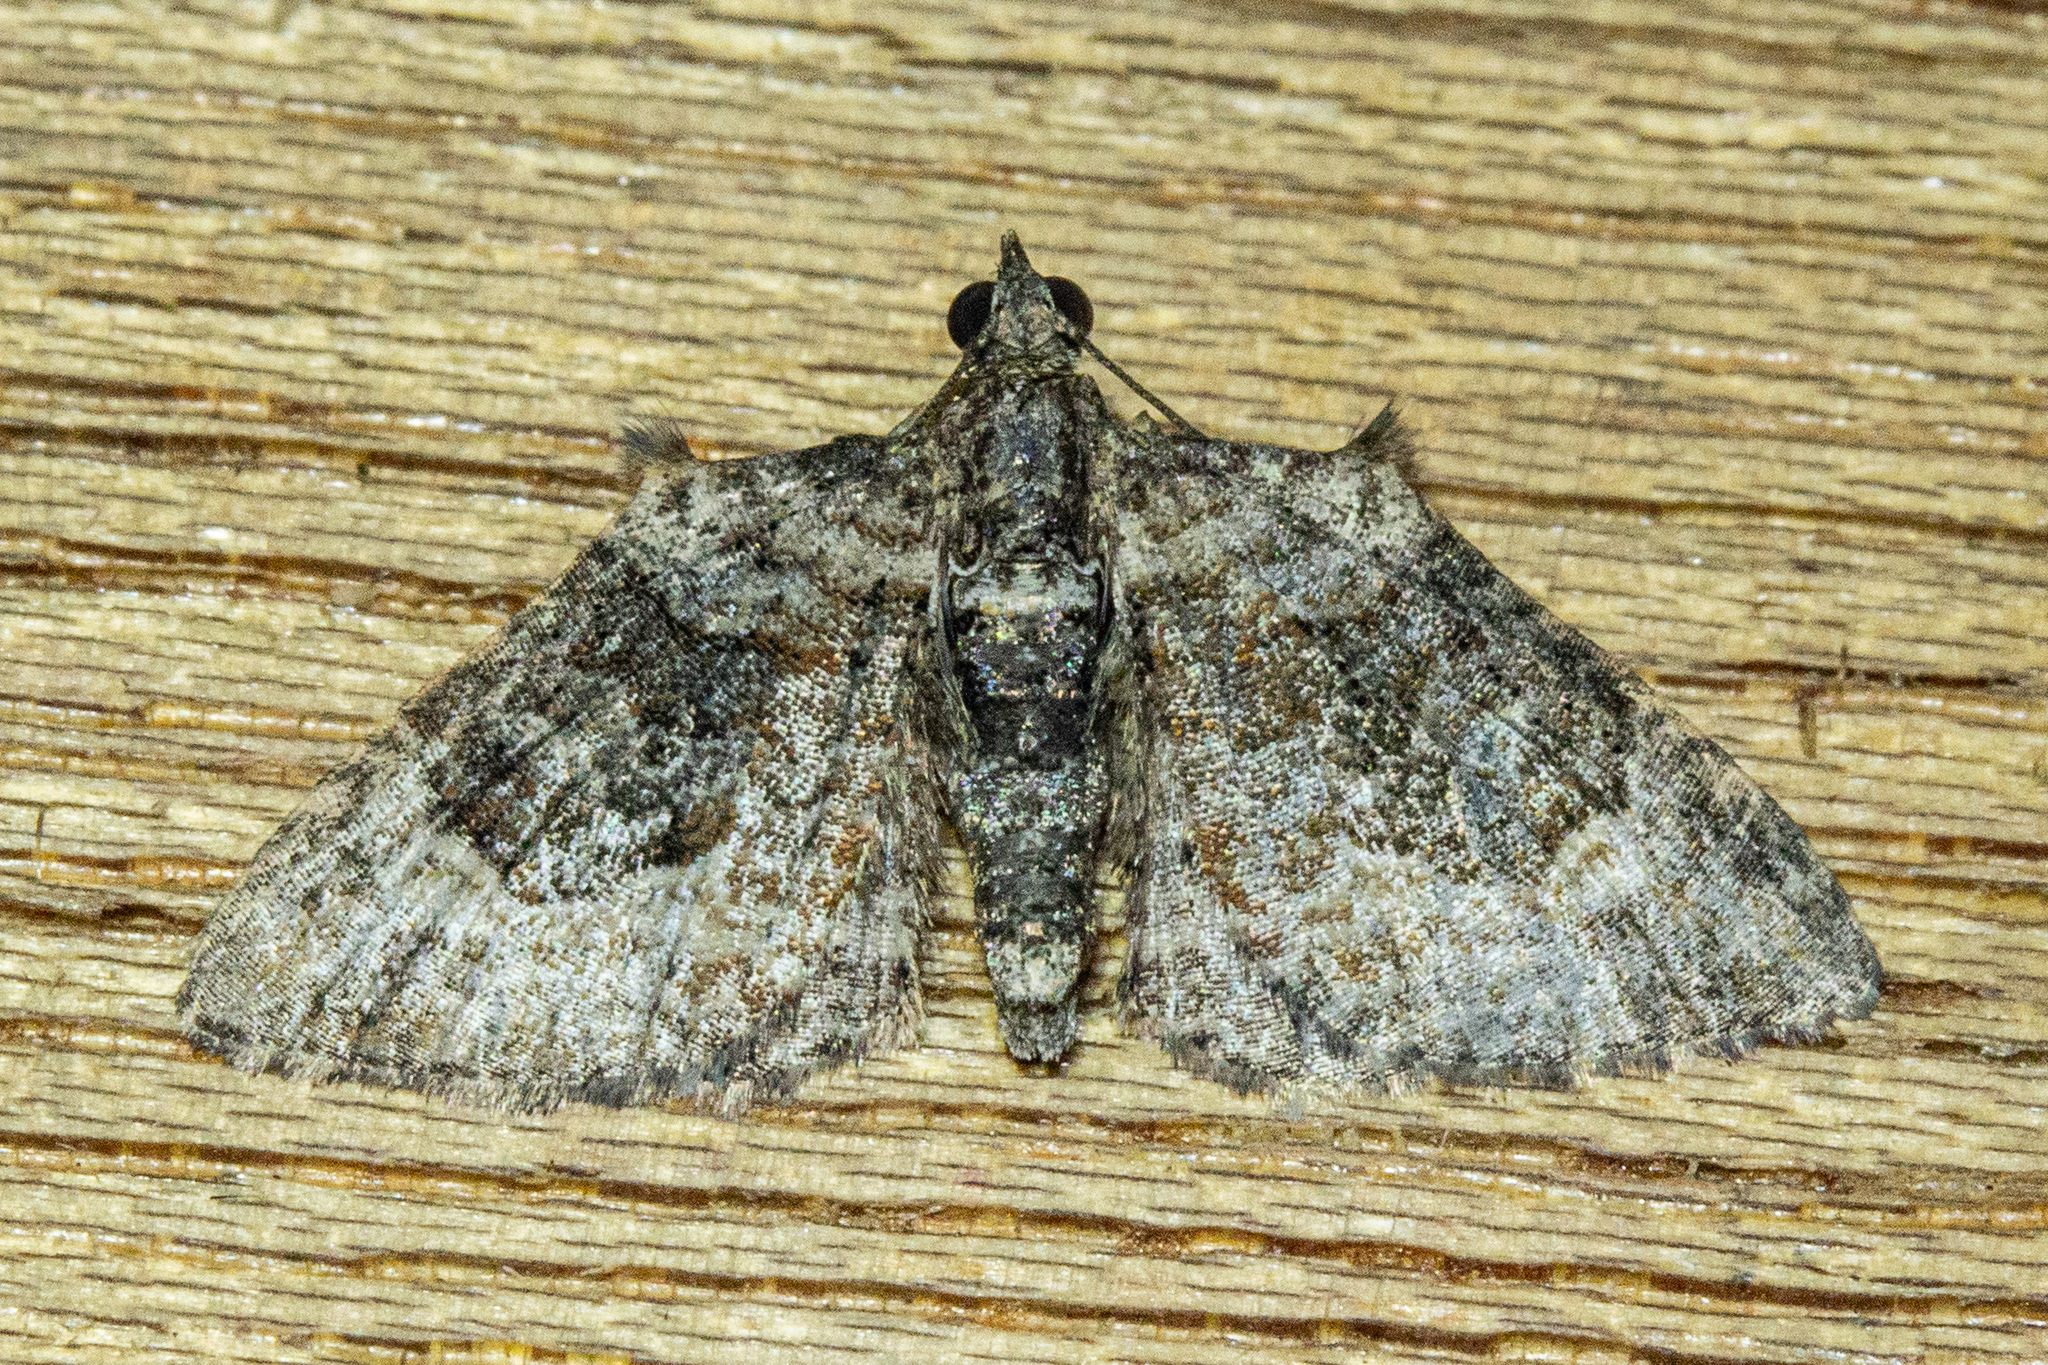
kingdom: Animalia
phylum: Arthropoda
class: Insecta
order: Lepidoptera
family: Geometridae
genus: Phrissogonus
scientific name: Phrissogonus laticostata
